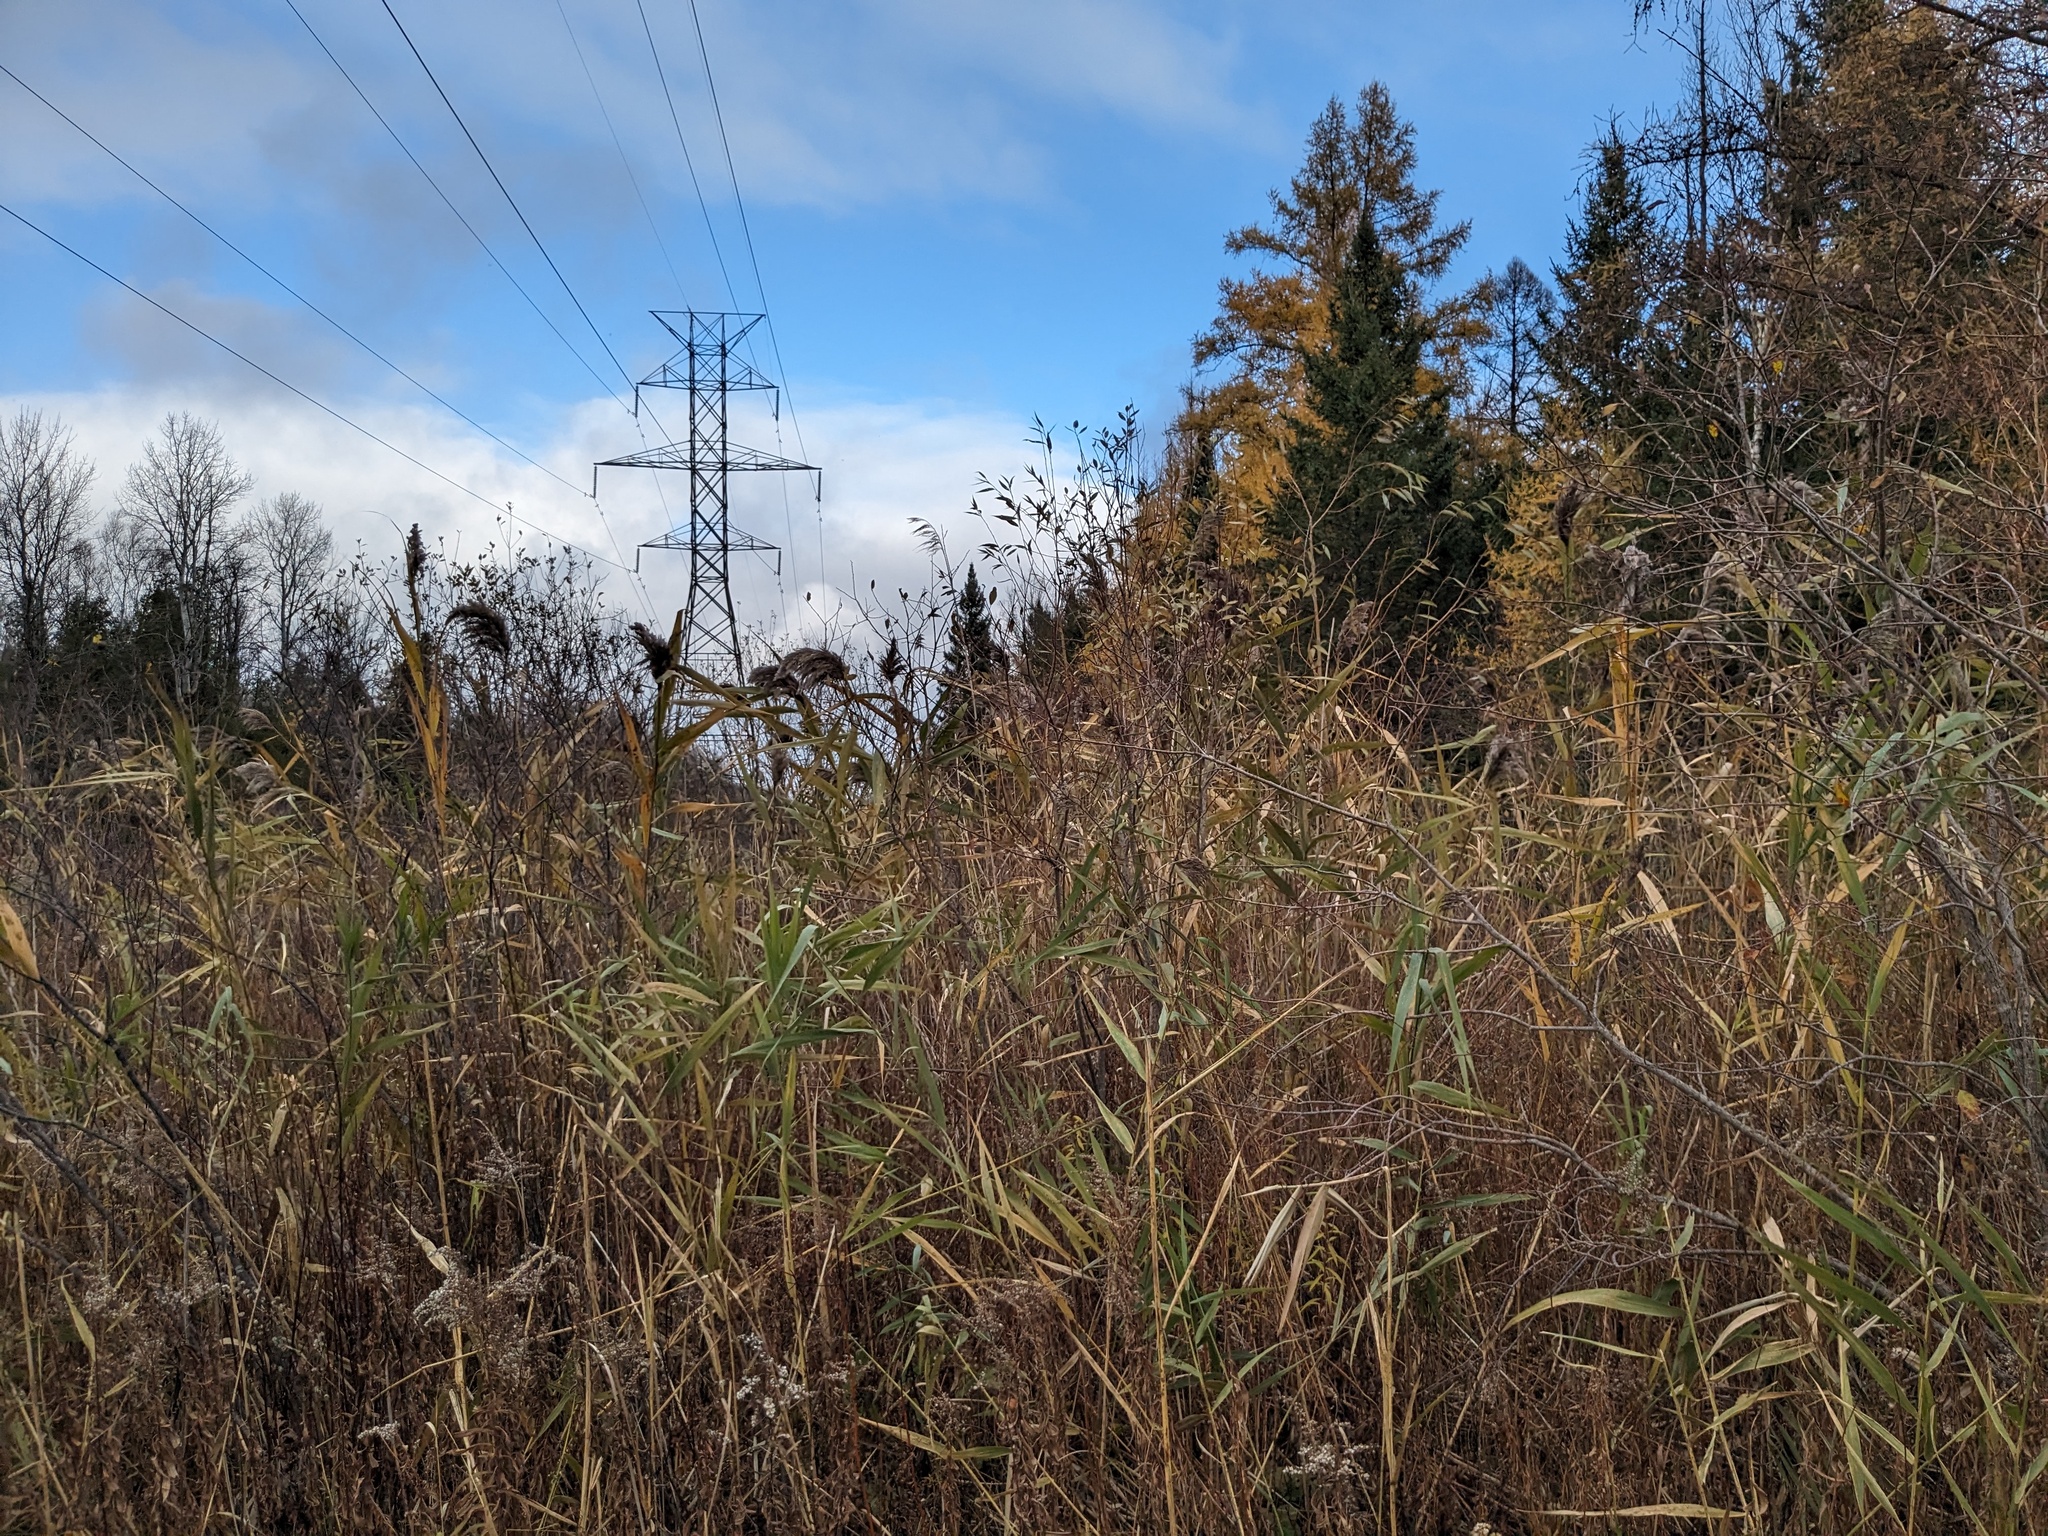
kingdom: Plantae
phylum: Tracheophyta
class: Liliopsida
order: Poales
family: Poaceae
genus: Phragmites
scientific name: Phragmites australis
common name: Common reed
